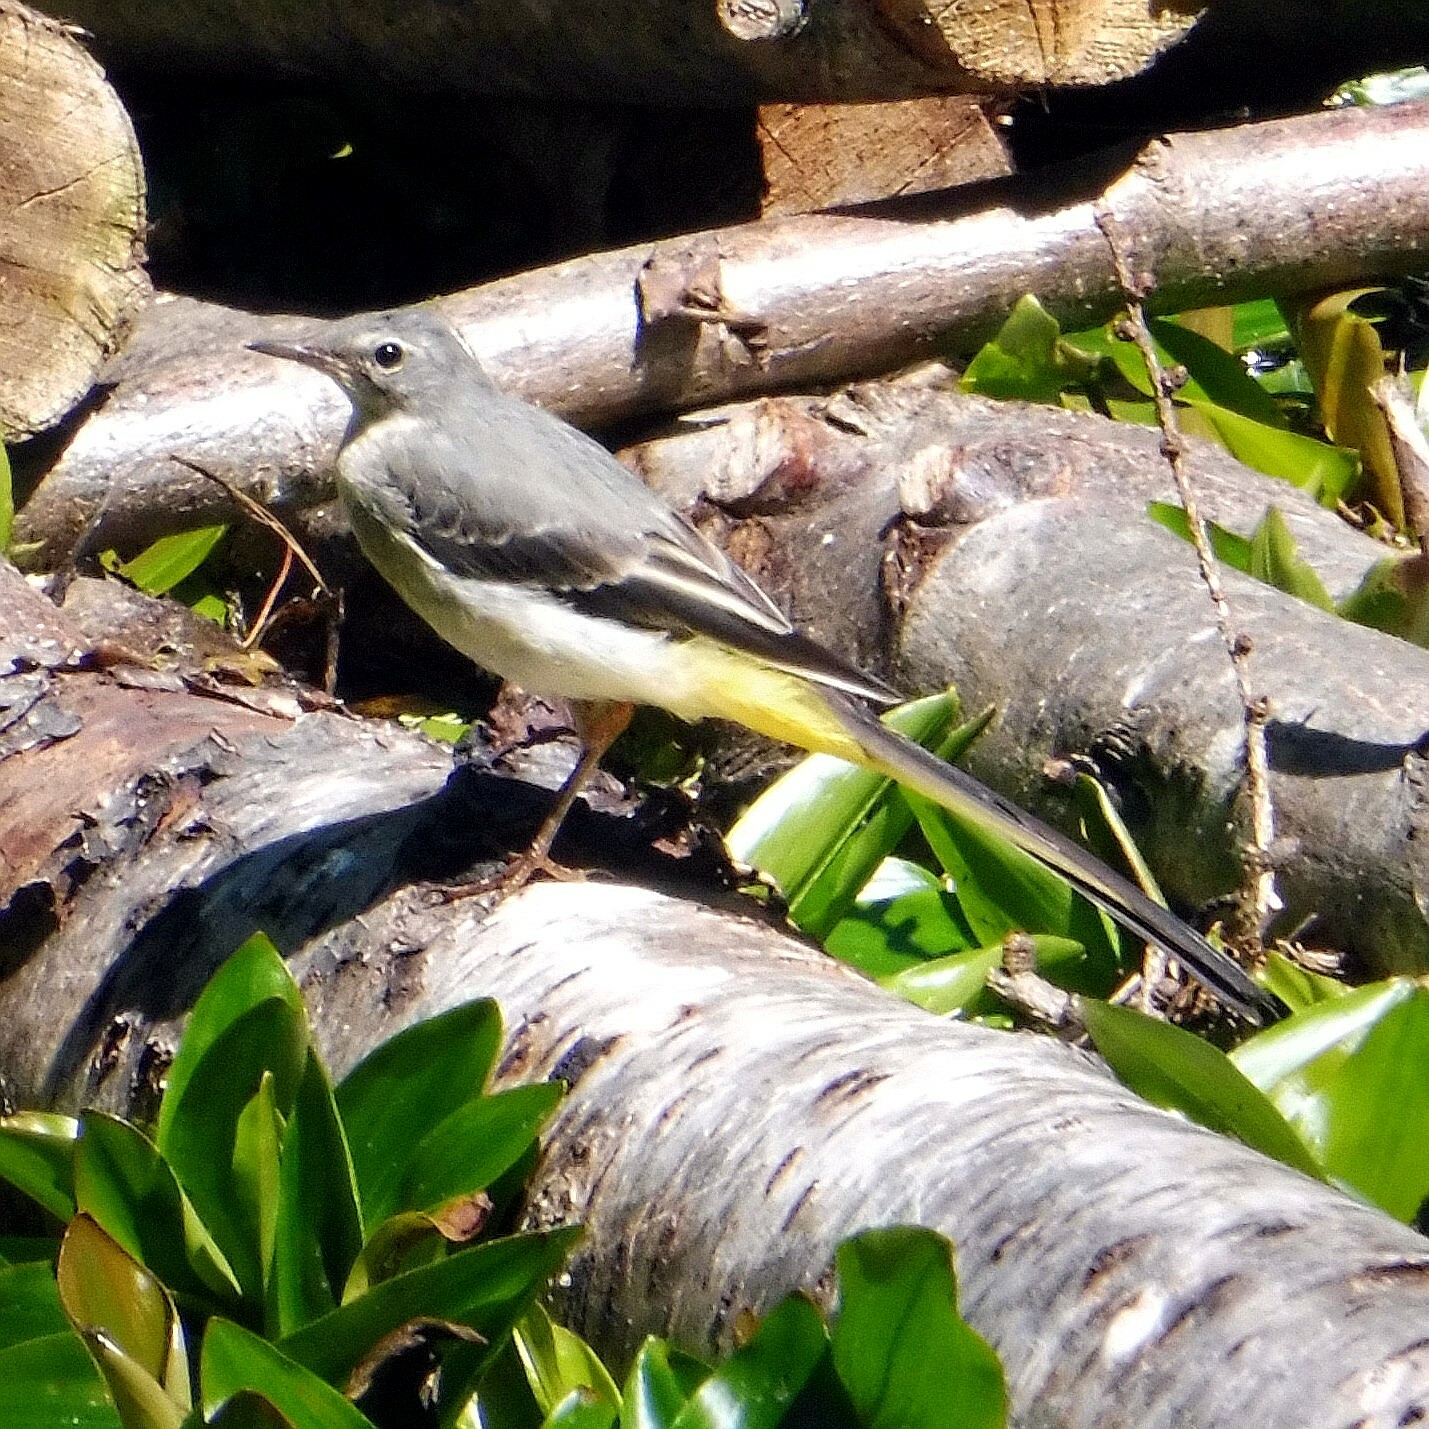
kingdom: Animalia
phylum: Chordata
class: Aves
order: Passeriformes
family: Motacillidae
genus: Motacilla
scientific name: Motacilla cinerea
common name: Grey wagtail
